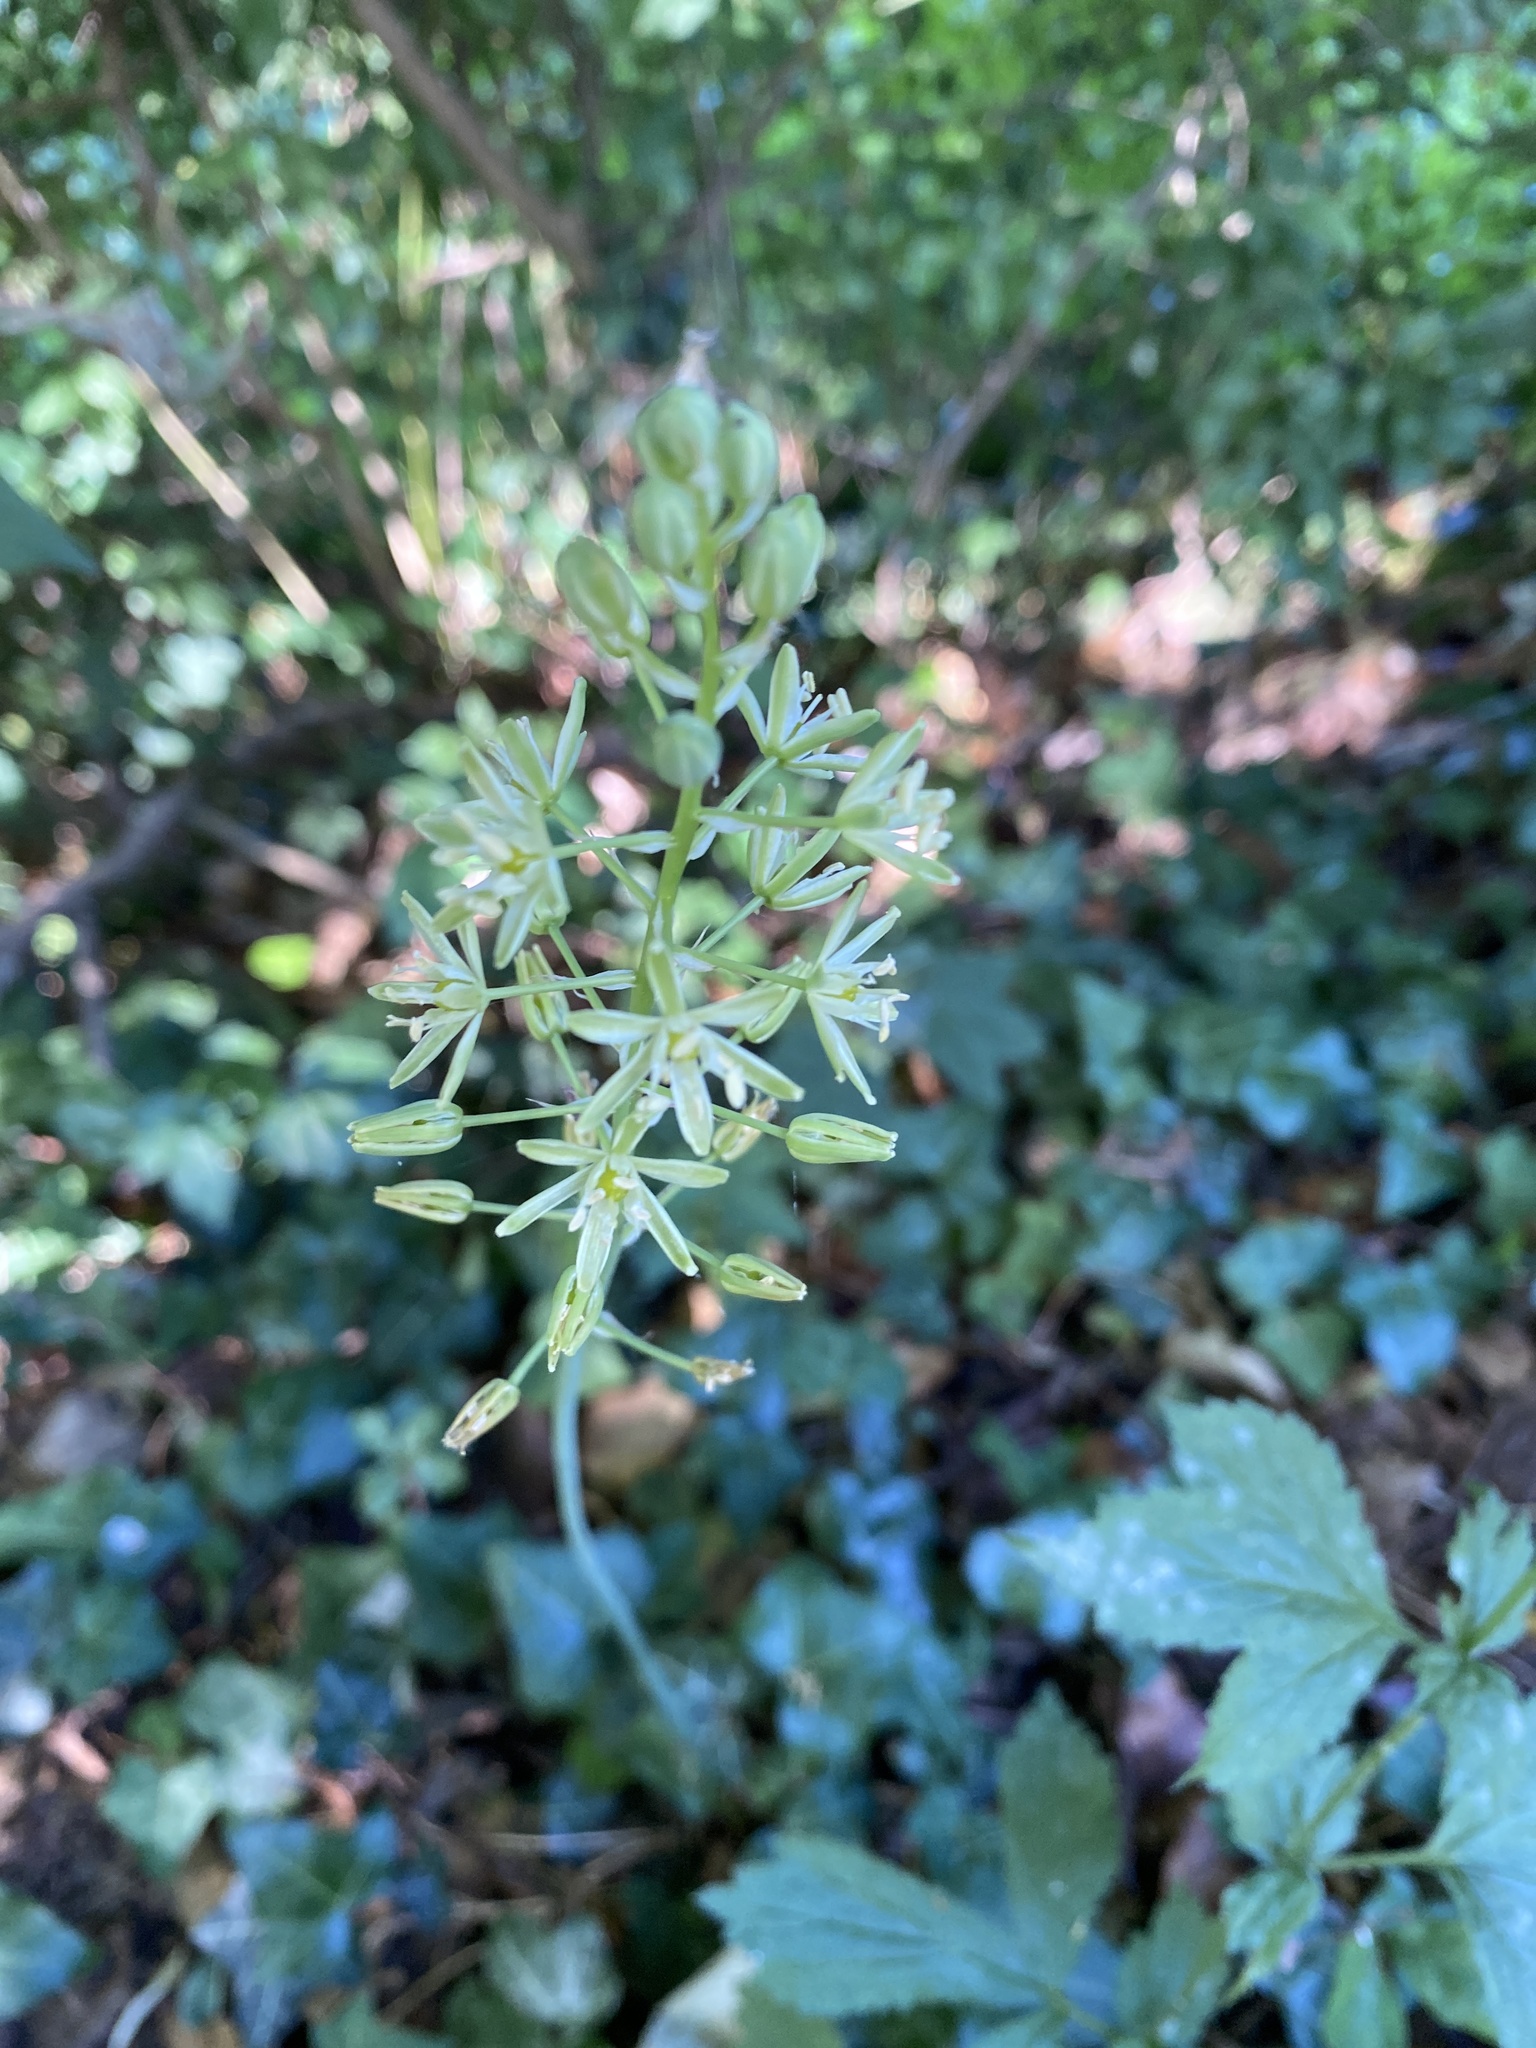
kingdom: Plantae
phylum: Tracheophyta
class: Liliopsida
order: Asparagales
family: Asparagaceae
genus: Ornithogalum
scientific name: Ornithogalum pyrenaicum
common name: Spiked star-of-bethlehem
